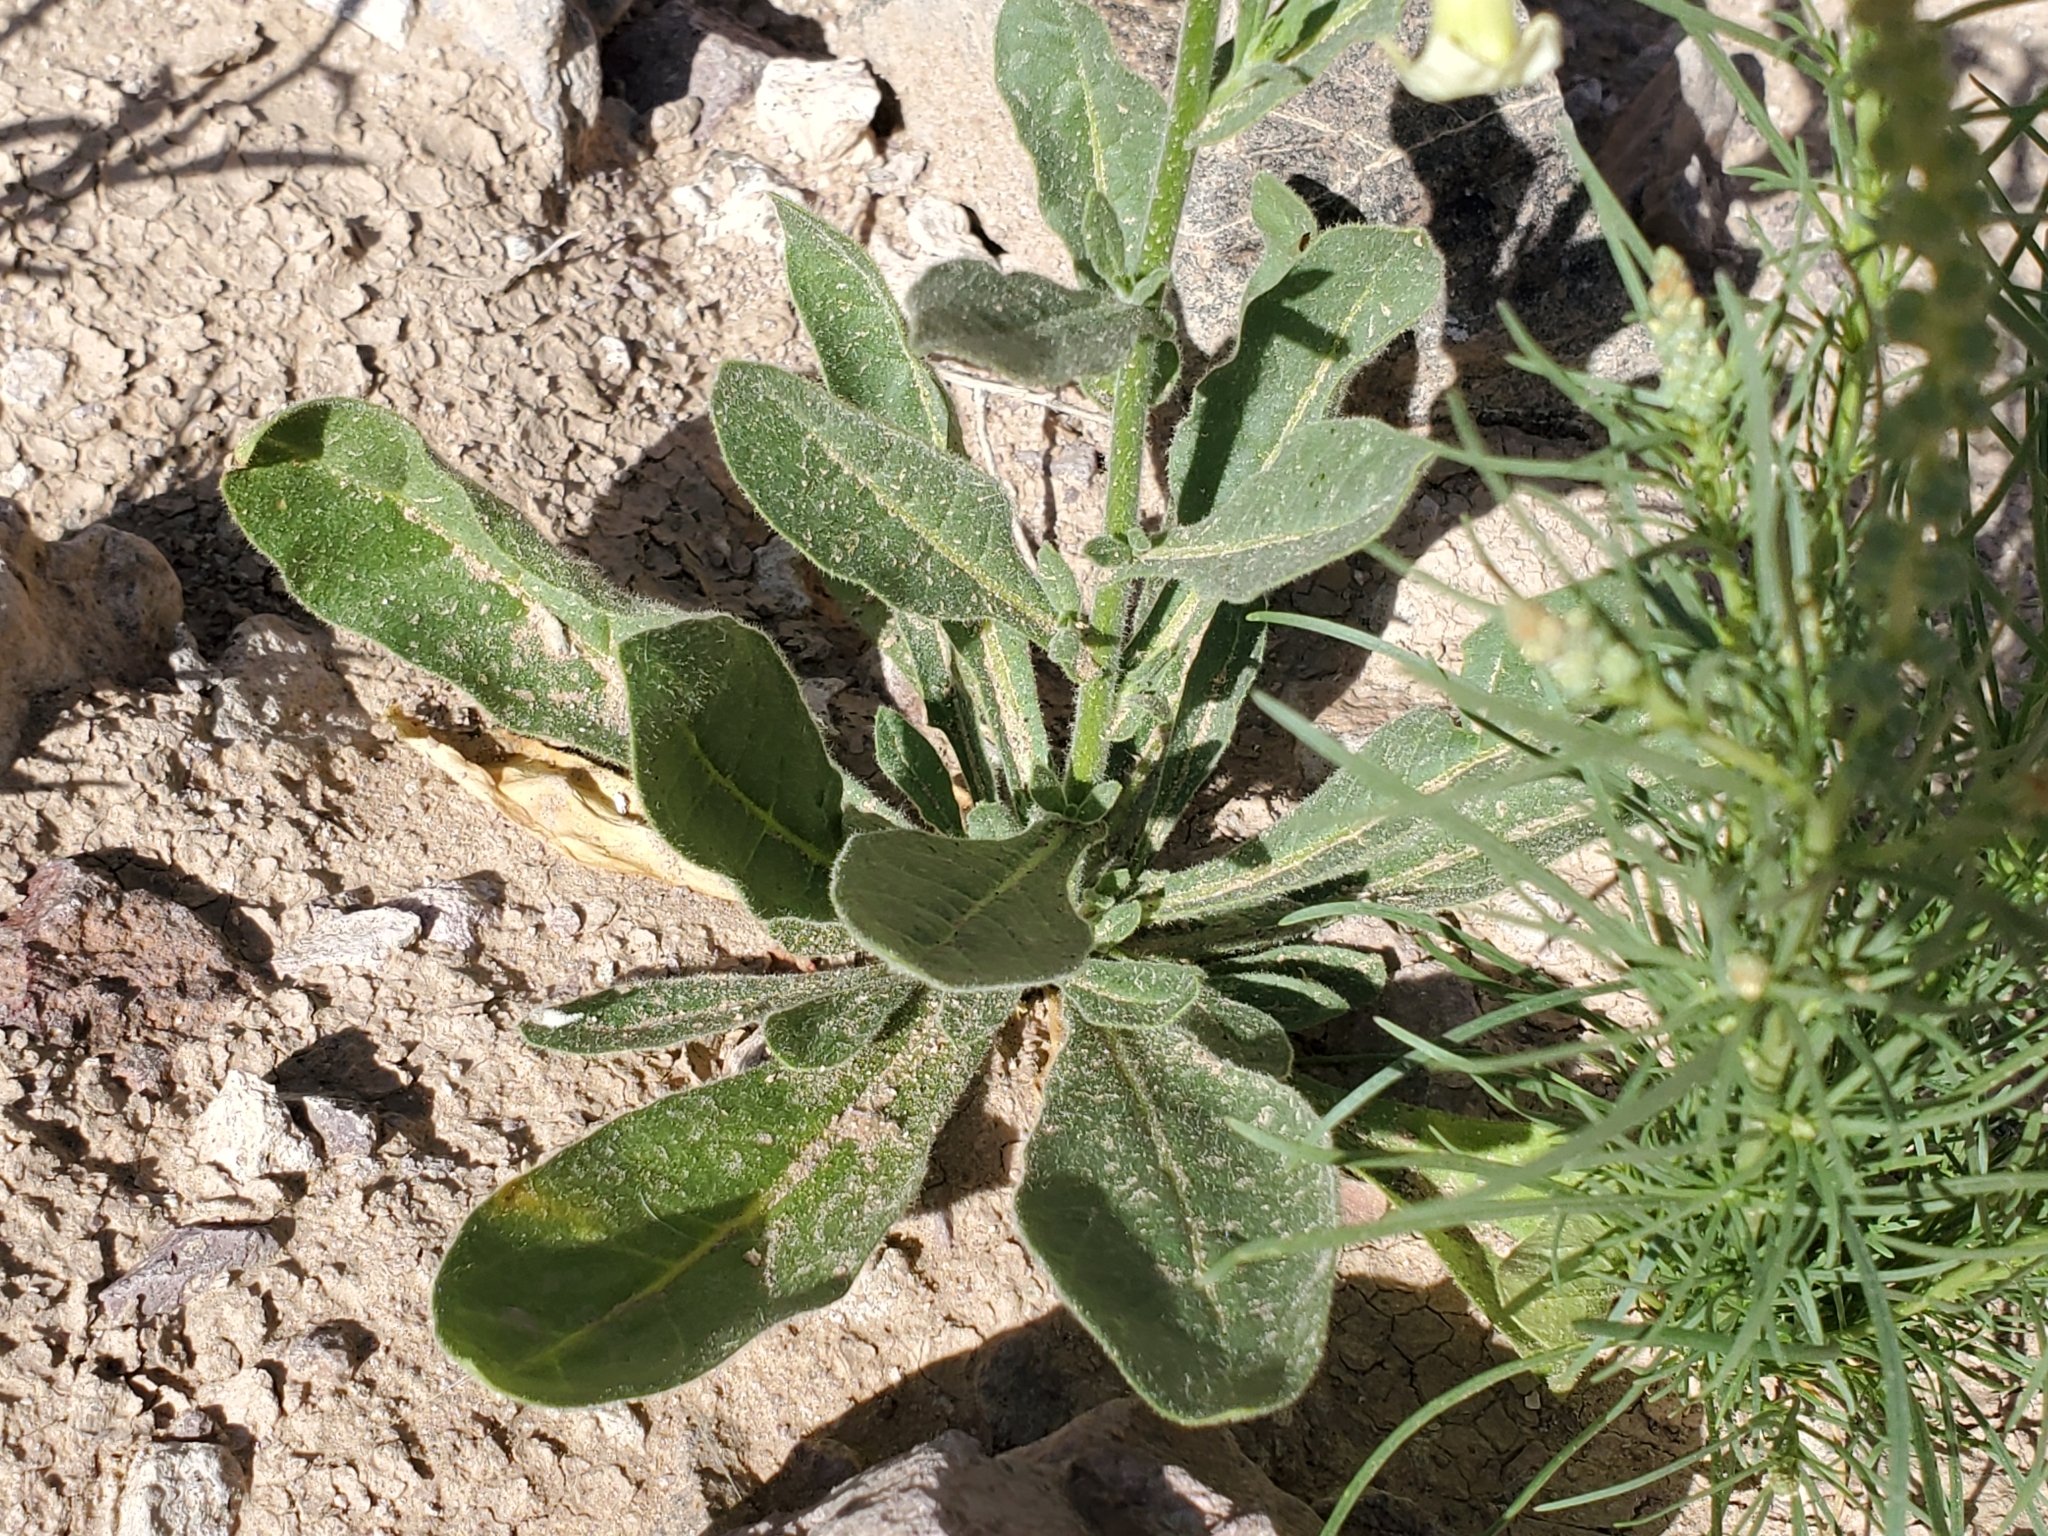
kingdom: Plantae
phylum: Tracheophyta
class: Magnoliopsida
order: Solanales
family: Solanaceae
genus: Nicotiana
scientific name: Nicotiana obtusifolia
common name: Desert tobacco
